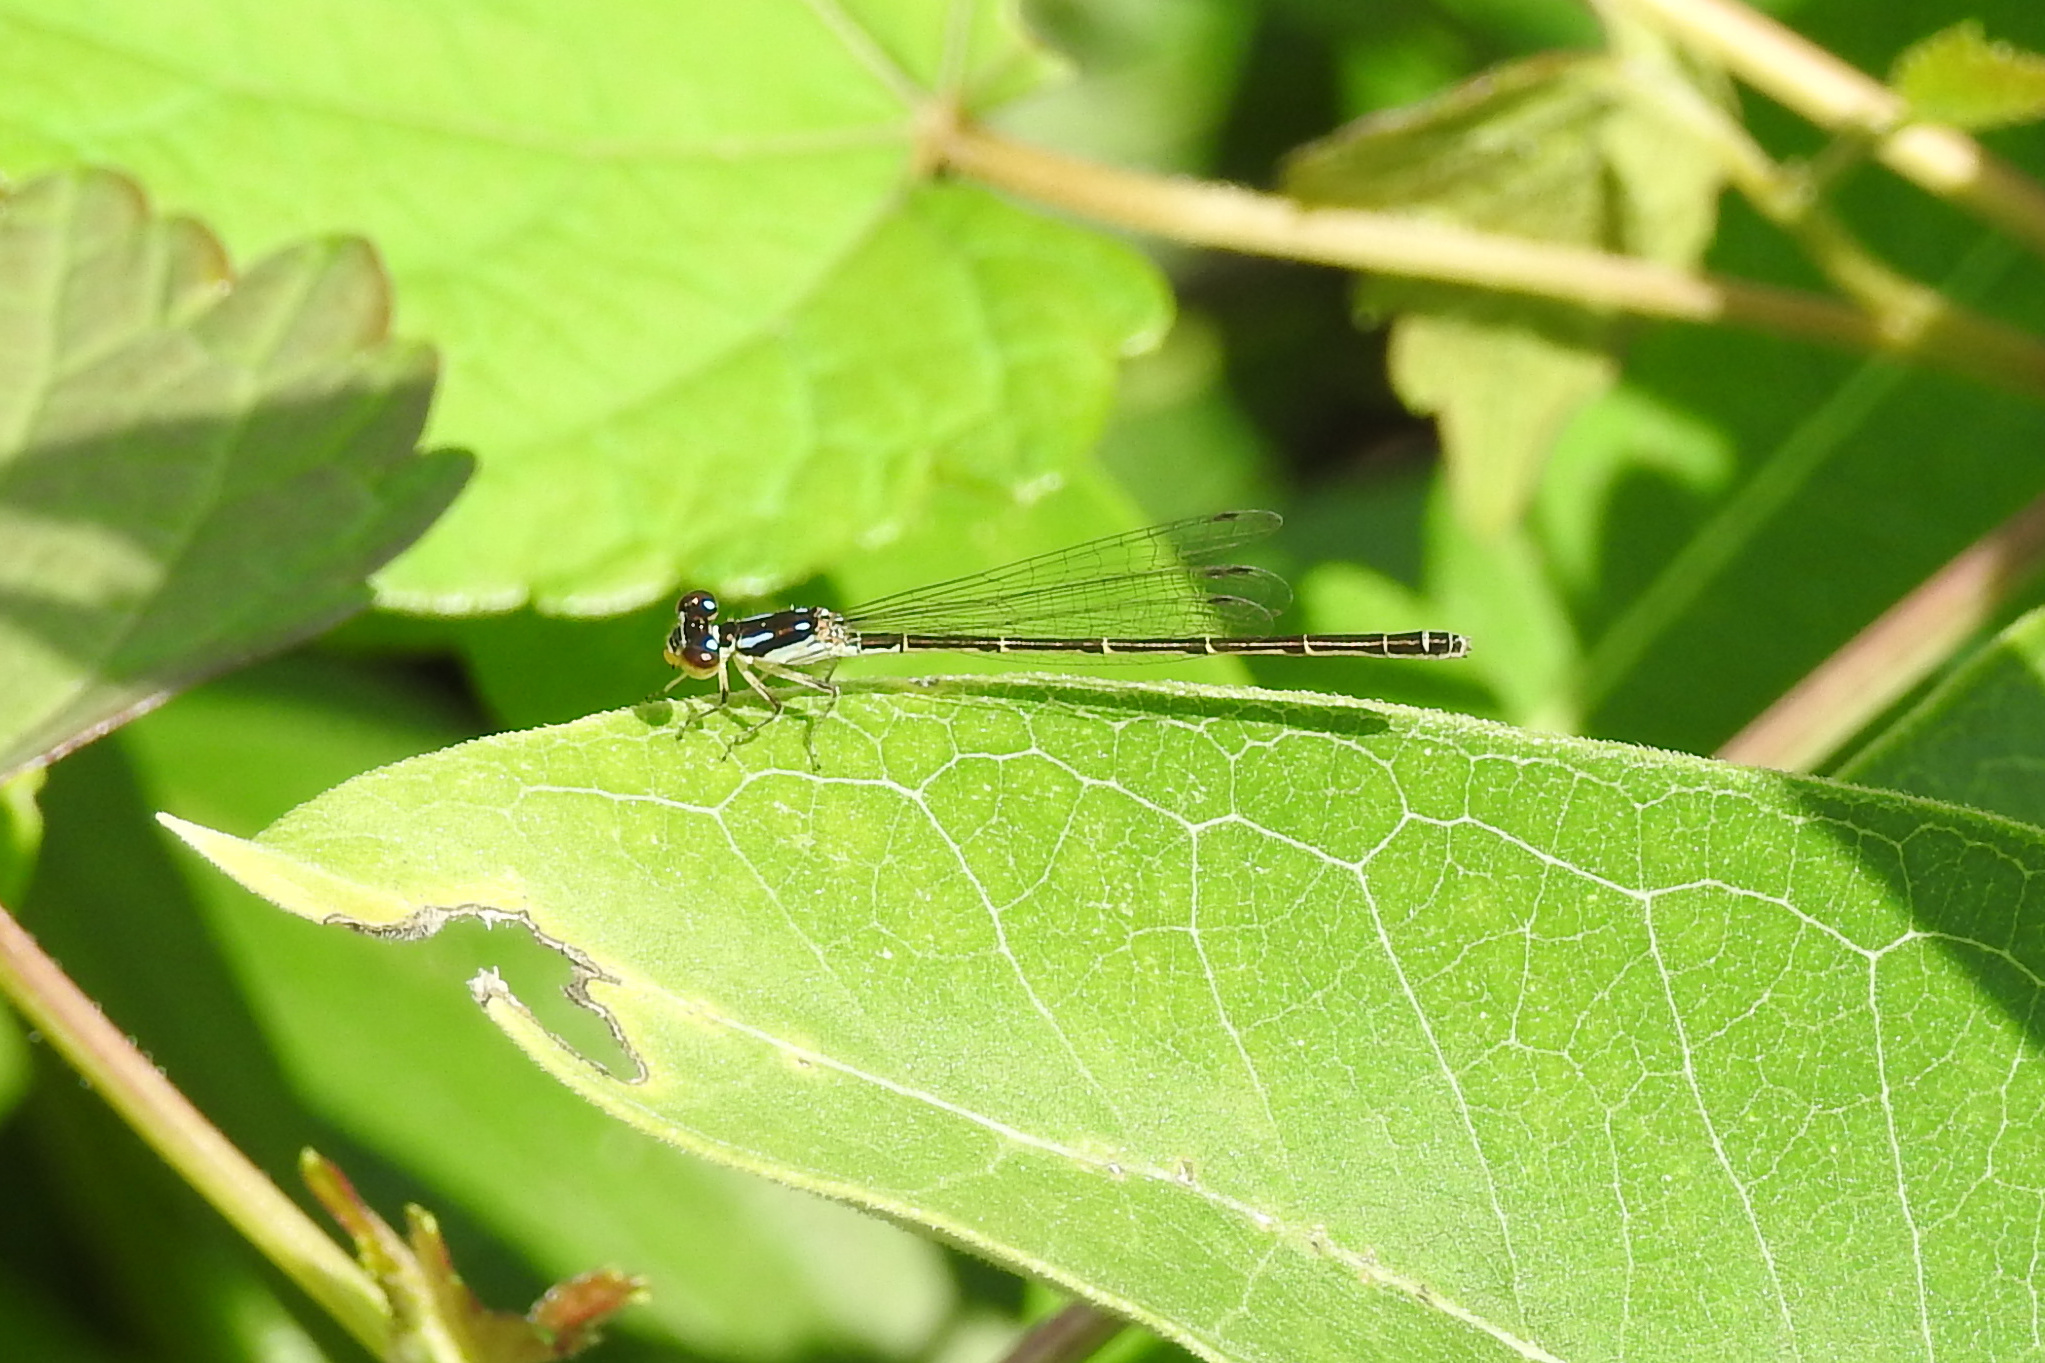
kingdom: Animalia
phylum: Arthropoda
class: Insecta
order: Odonata
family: Coenagrionidae
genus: Ischnura
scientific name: Ischnura posita
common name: Fragile forktail
